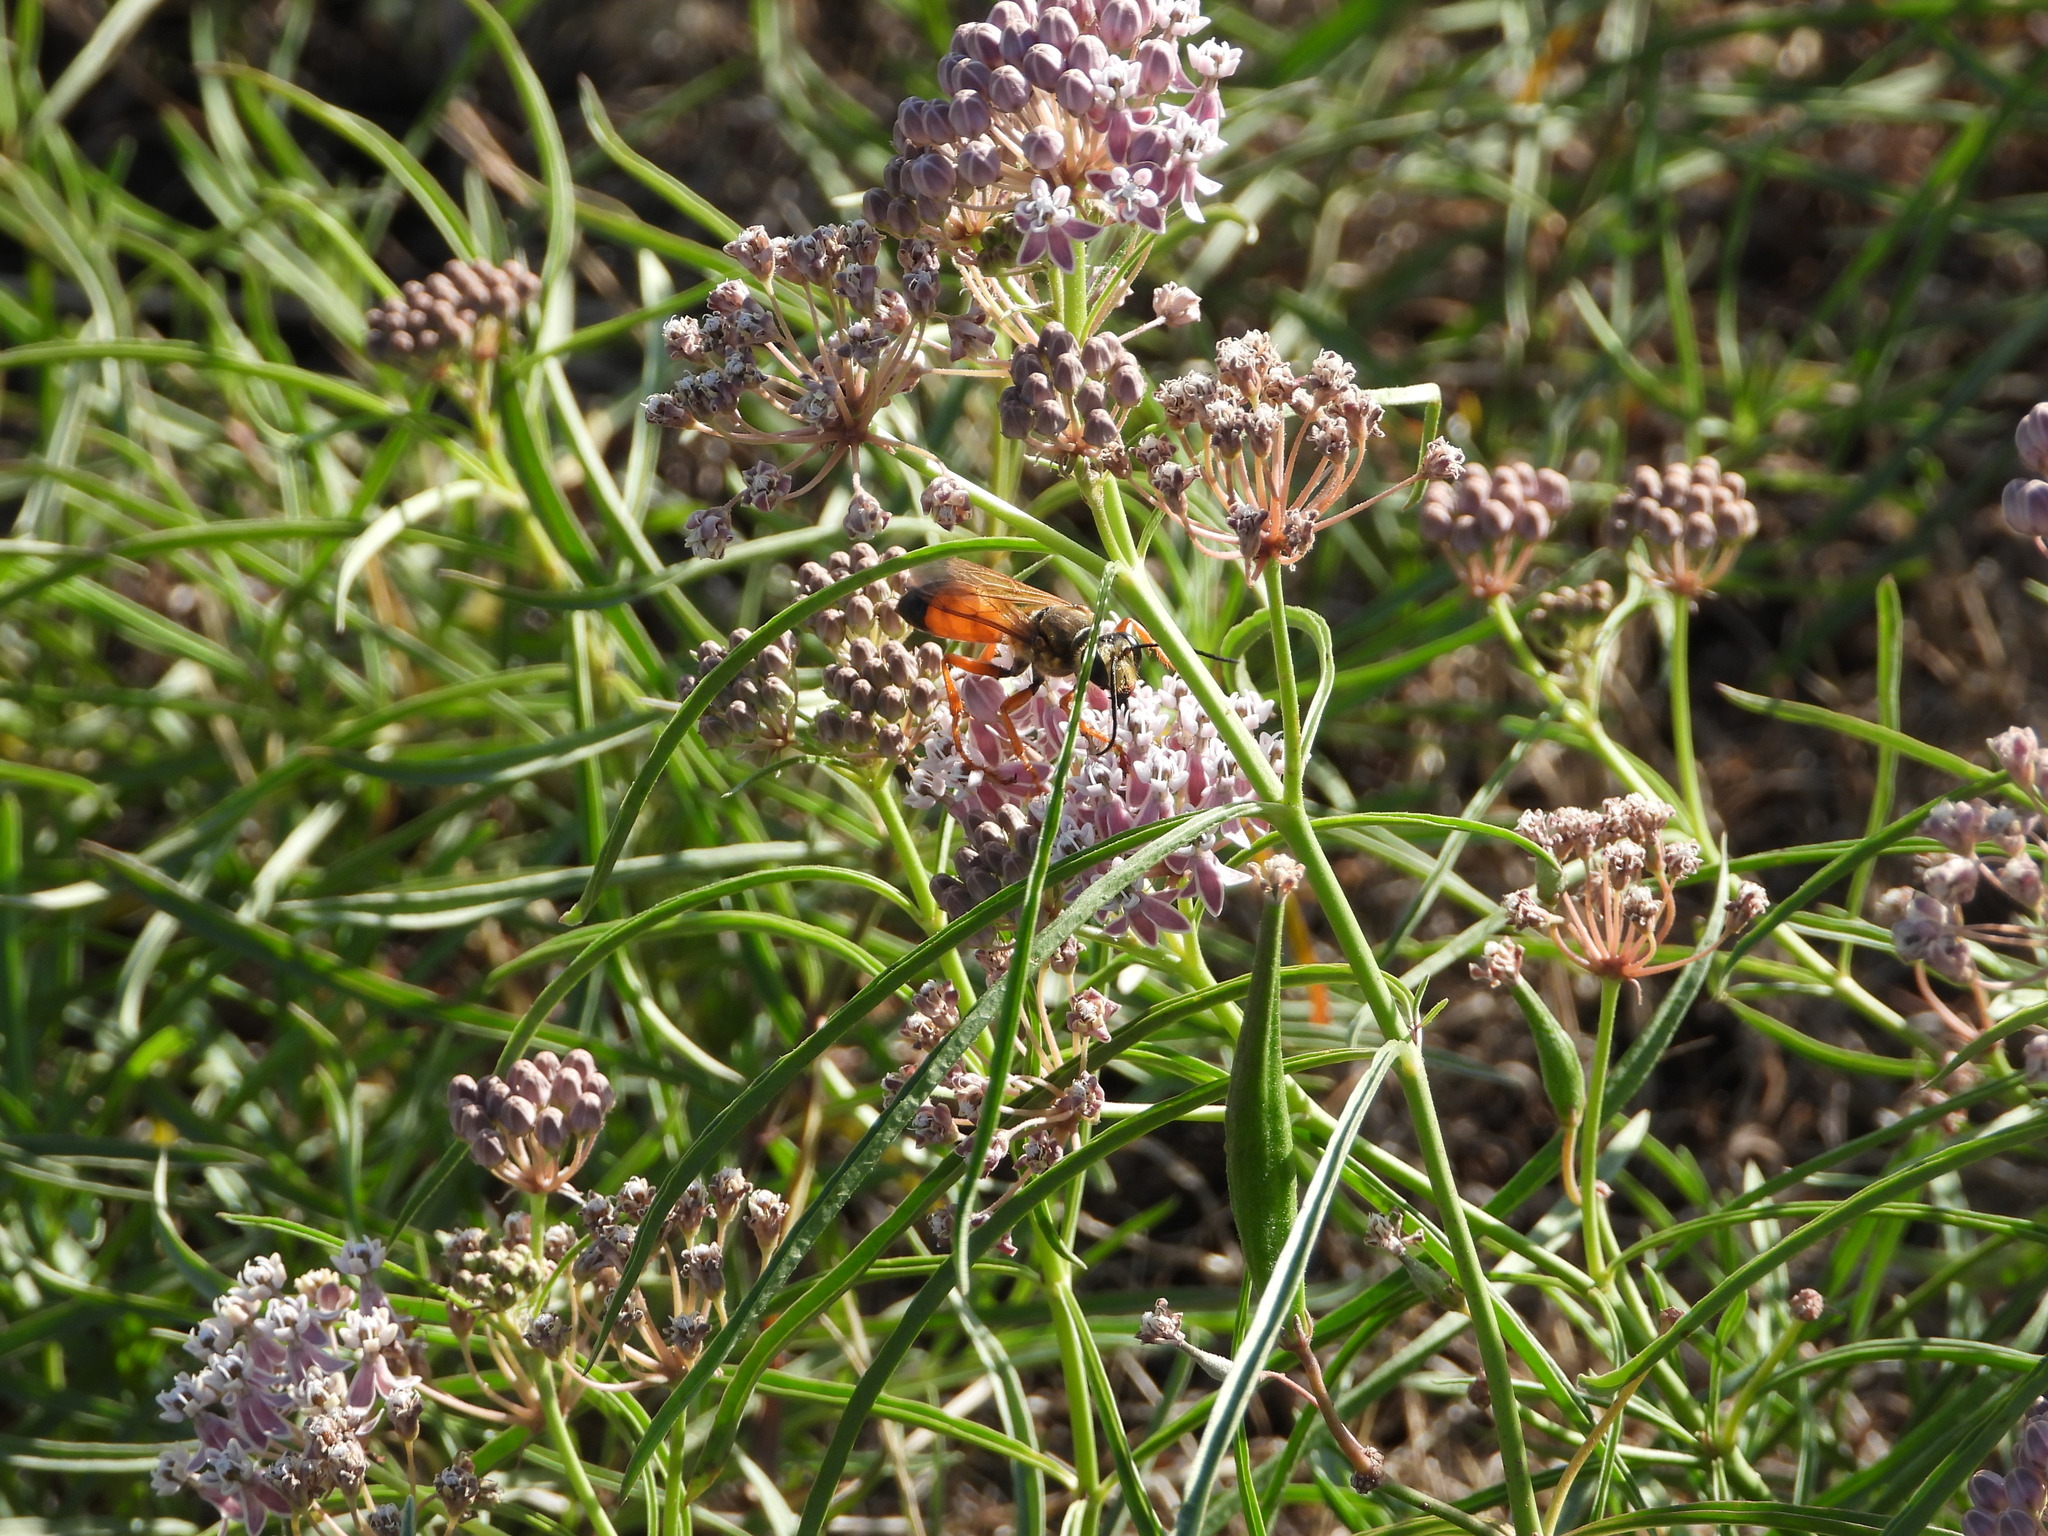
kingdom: Animalia
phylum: Arthropoda
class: Insecta
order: Hymenoptera
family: Sphecidae
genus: Sphex
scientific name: Sphex ichneumoneus
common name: Great golden digger wasp
